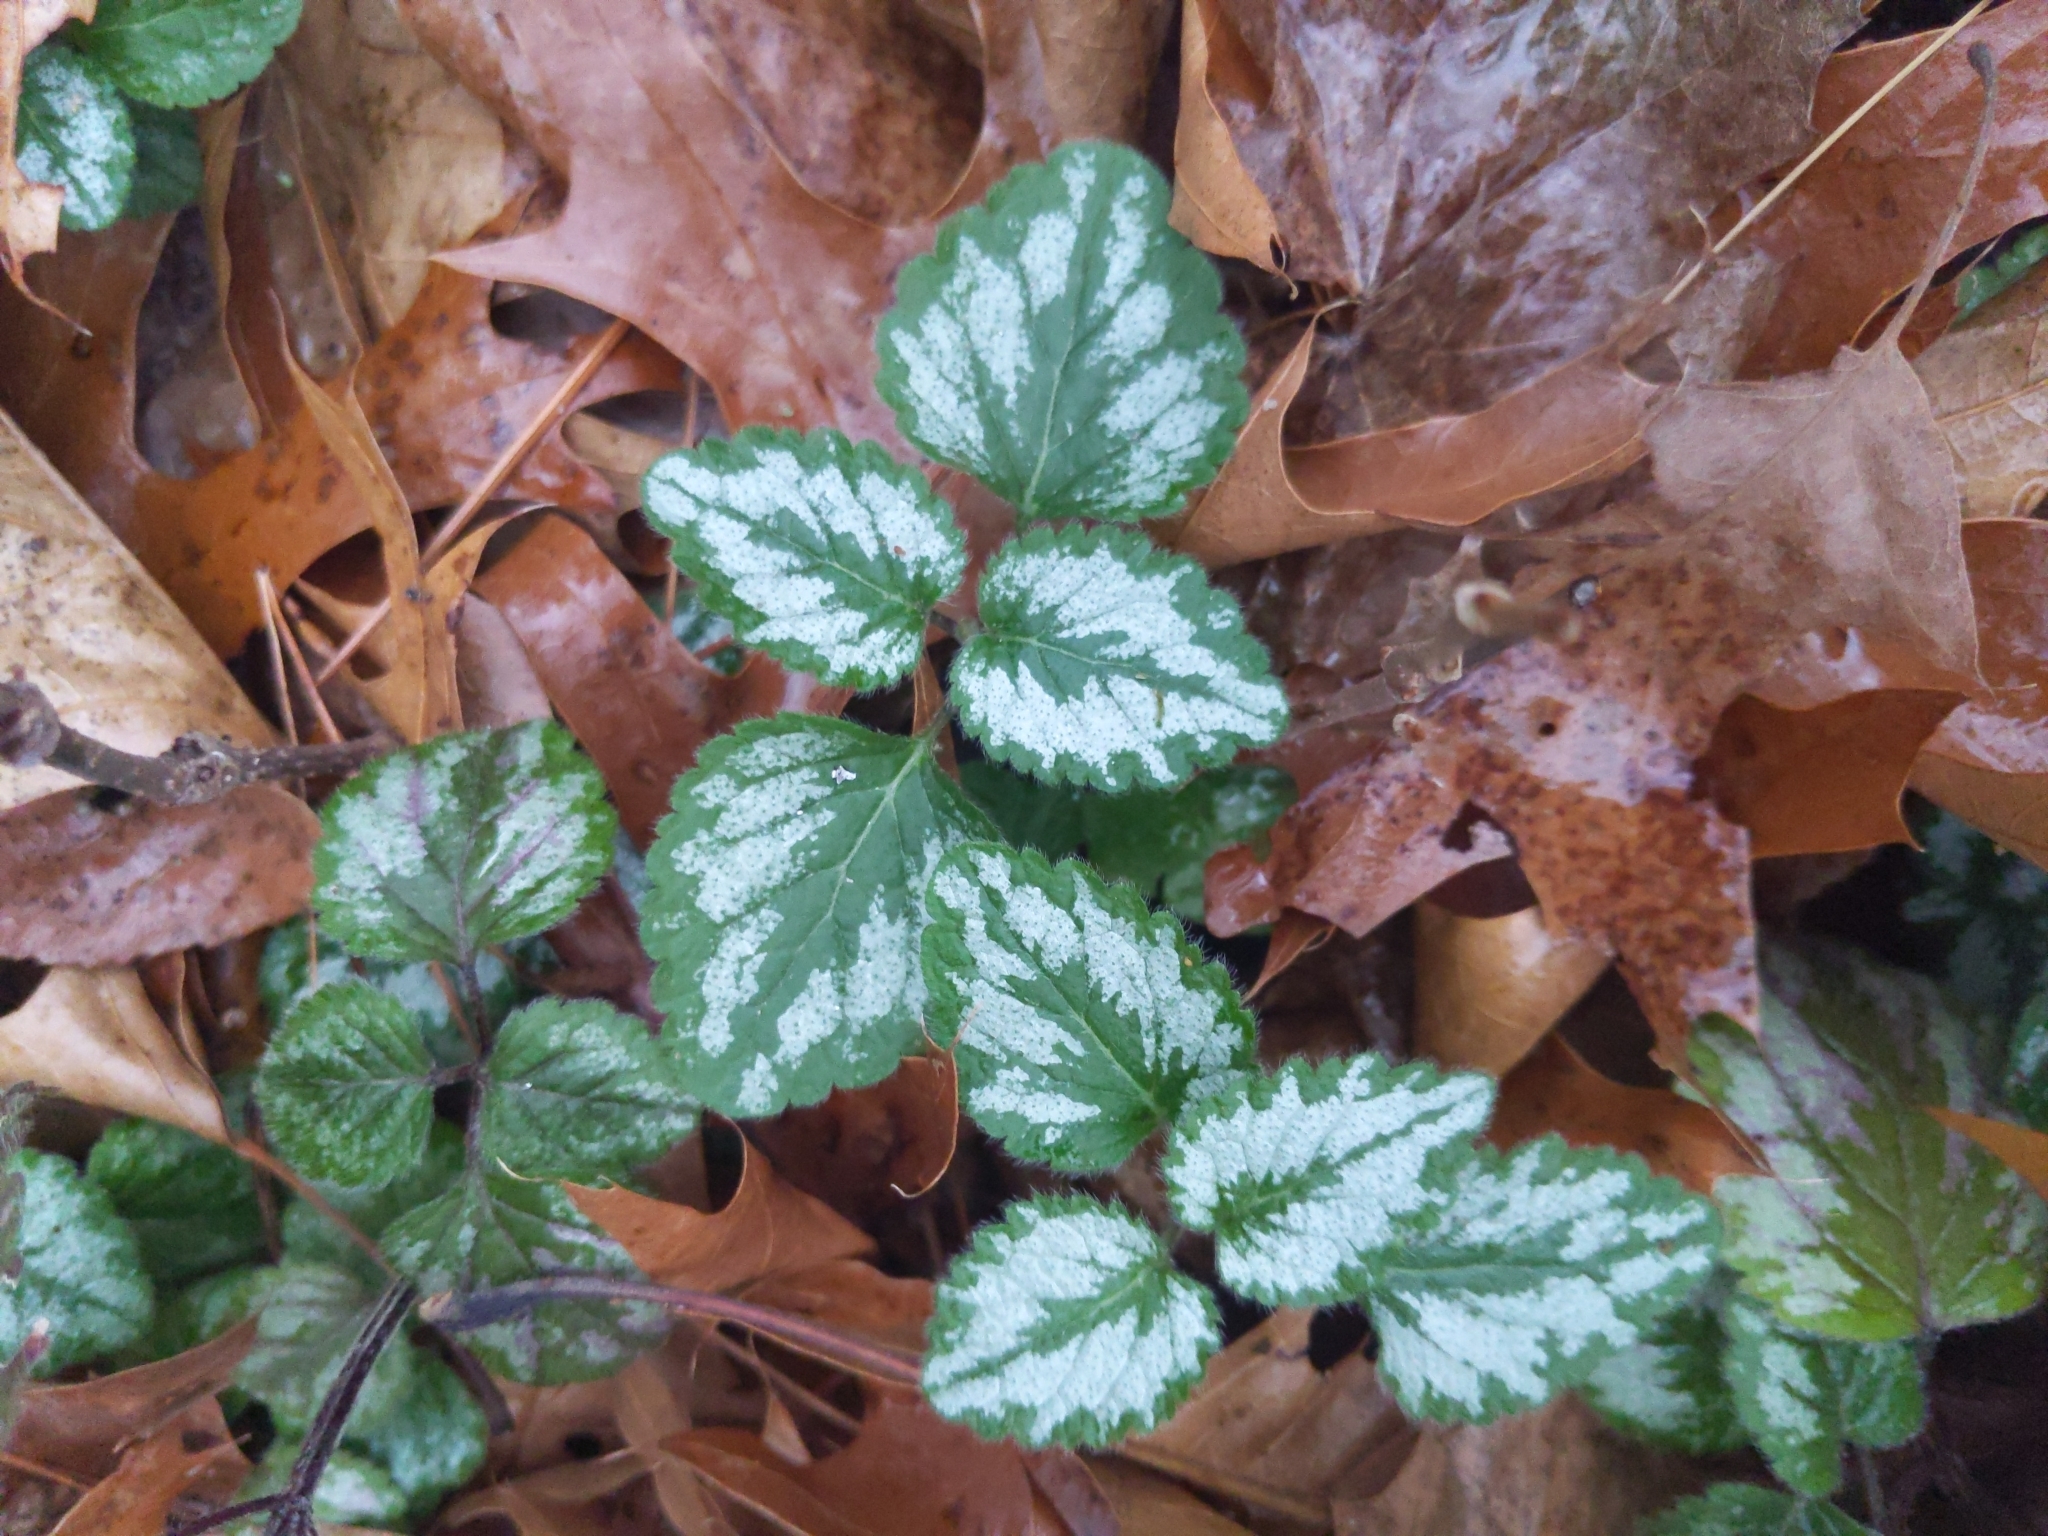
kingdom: Plantae
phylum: Tracheophyta
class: Magnoliopsida
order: Lamiales
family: Lamiaceae
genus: Lamium
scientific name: Lamium galeobdolon
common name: Yellow archangel
